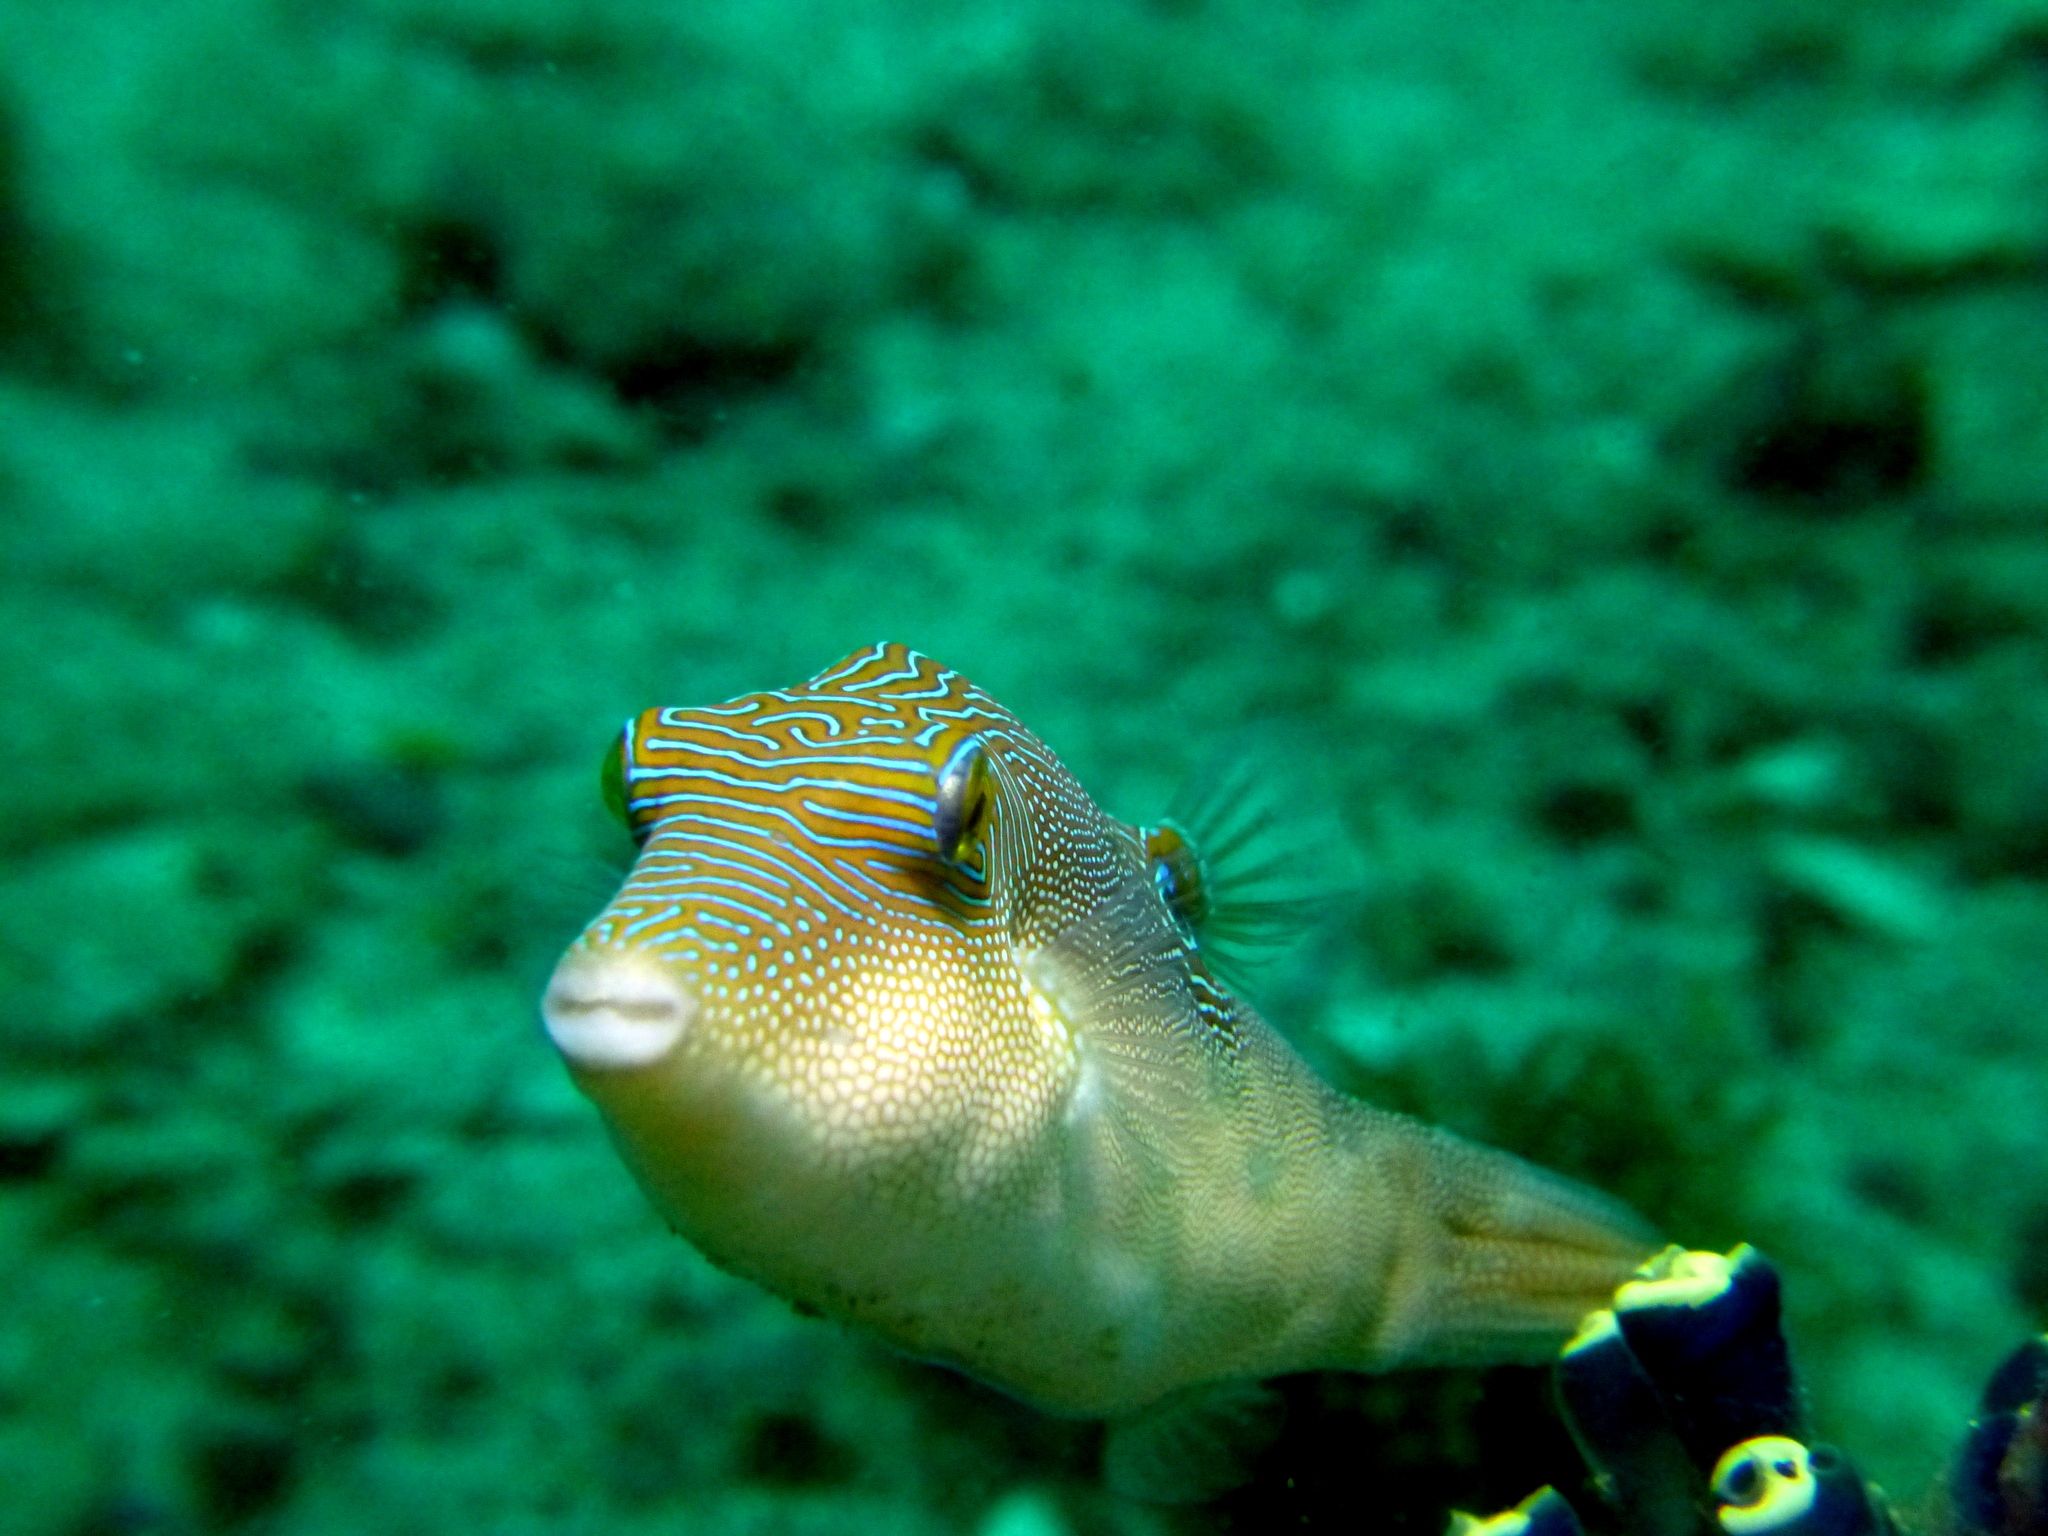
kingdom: Animalia
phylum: Chordata
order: Tetraodontiformes
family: Tetraodontidae
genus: Canthigaster
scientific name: Canthigaster compressa
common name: Compressed toby
